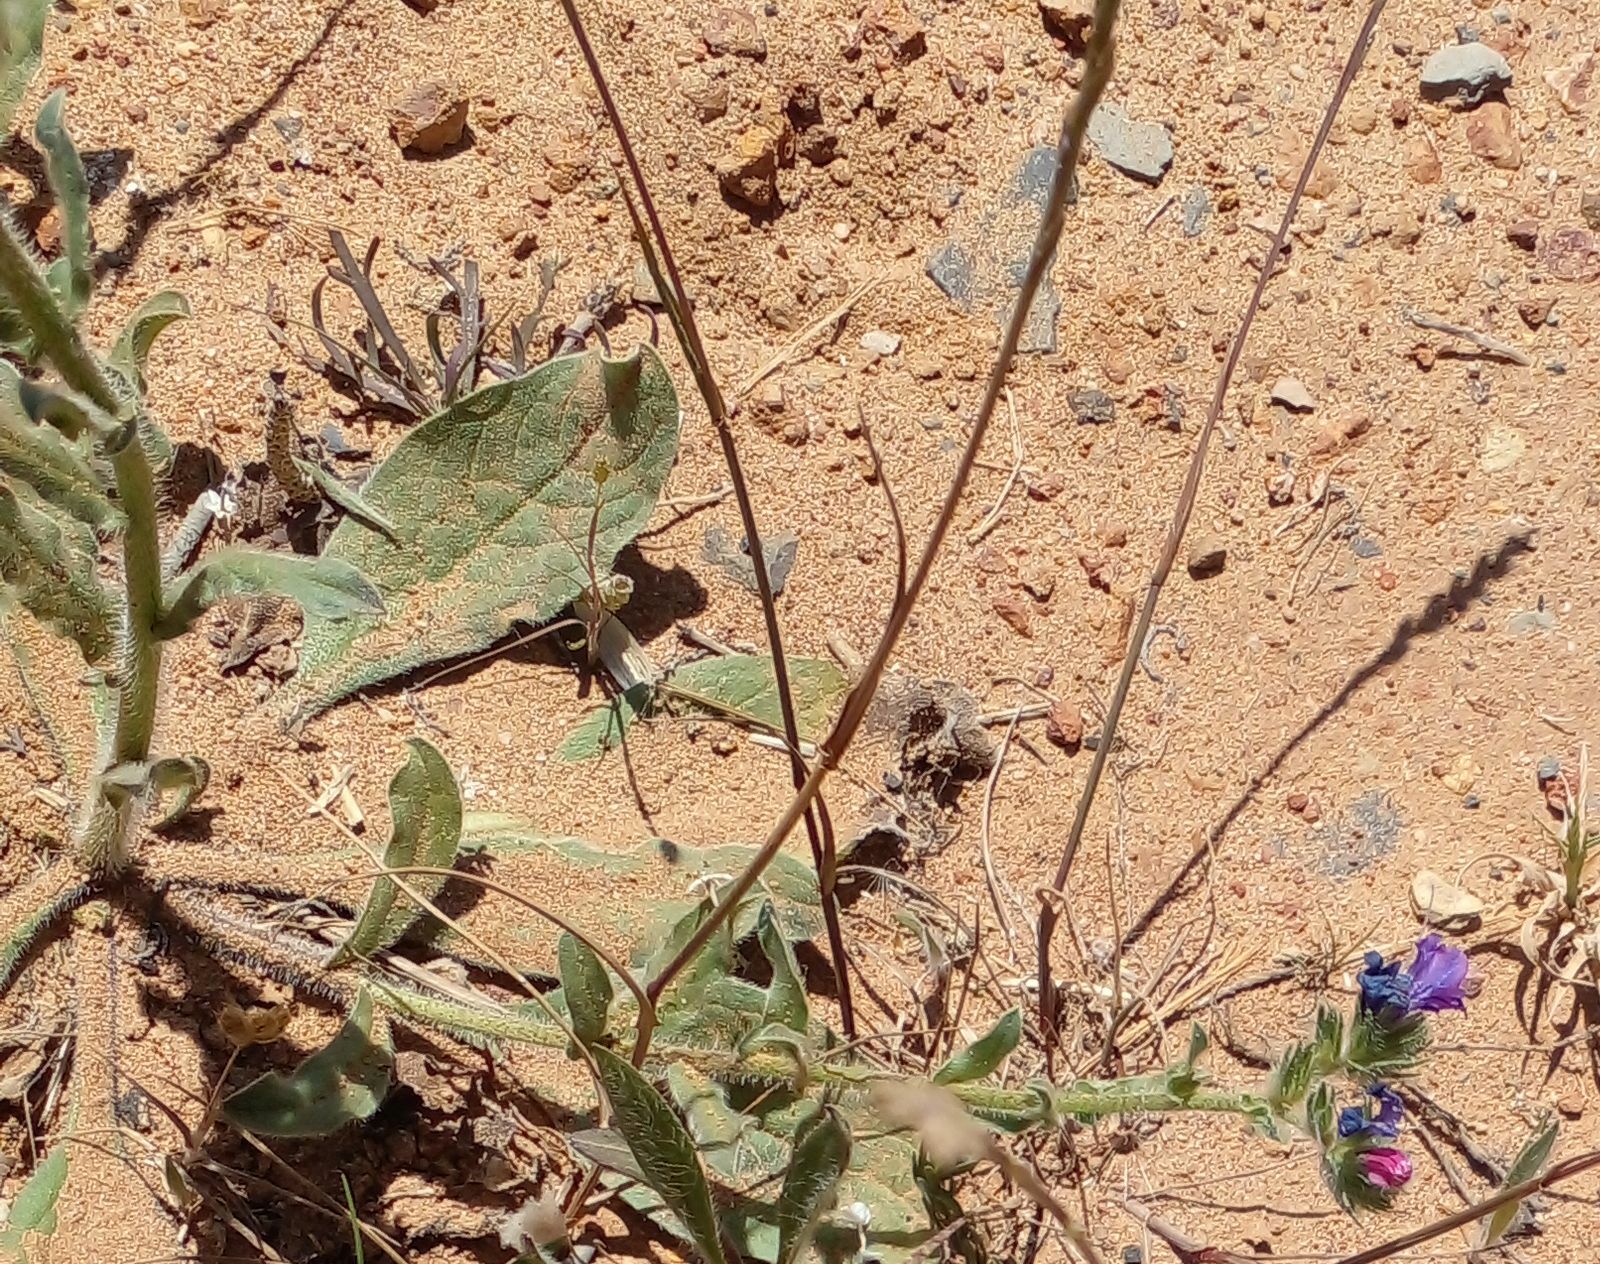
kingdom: Plantae
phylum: Tracheophyta
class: Magnoliopsida
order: Boraginales
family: Boraginaceae
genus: Echium
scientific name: Echium plantagineum
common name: Purple viper's-bugloss
